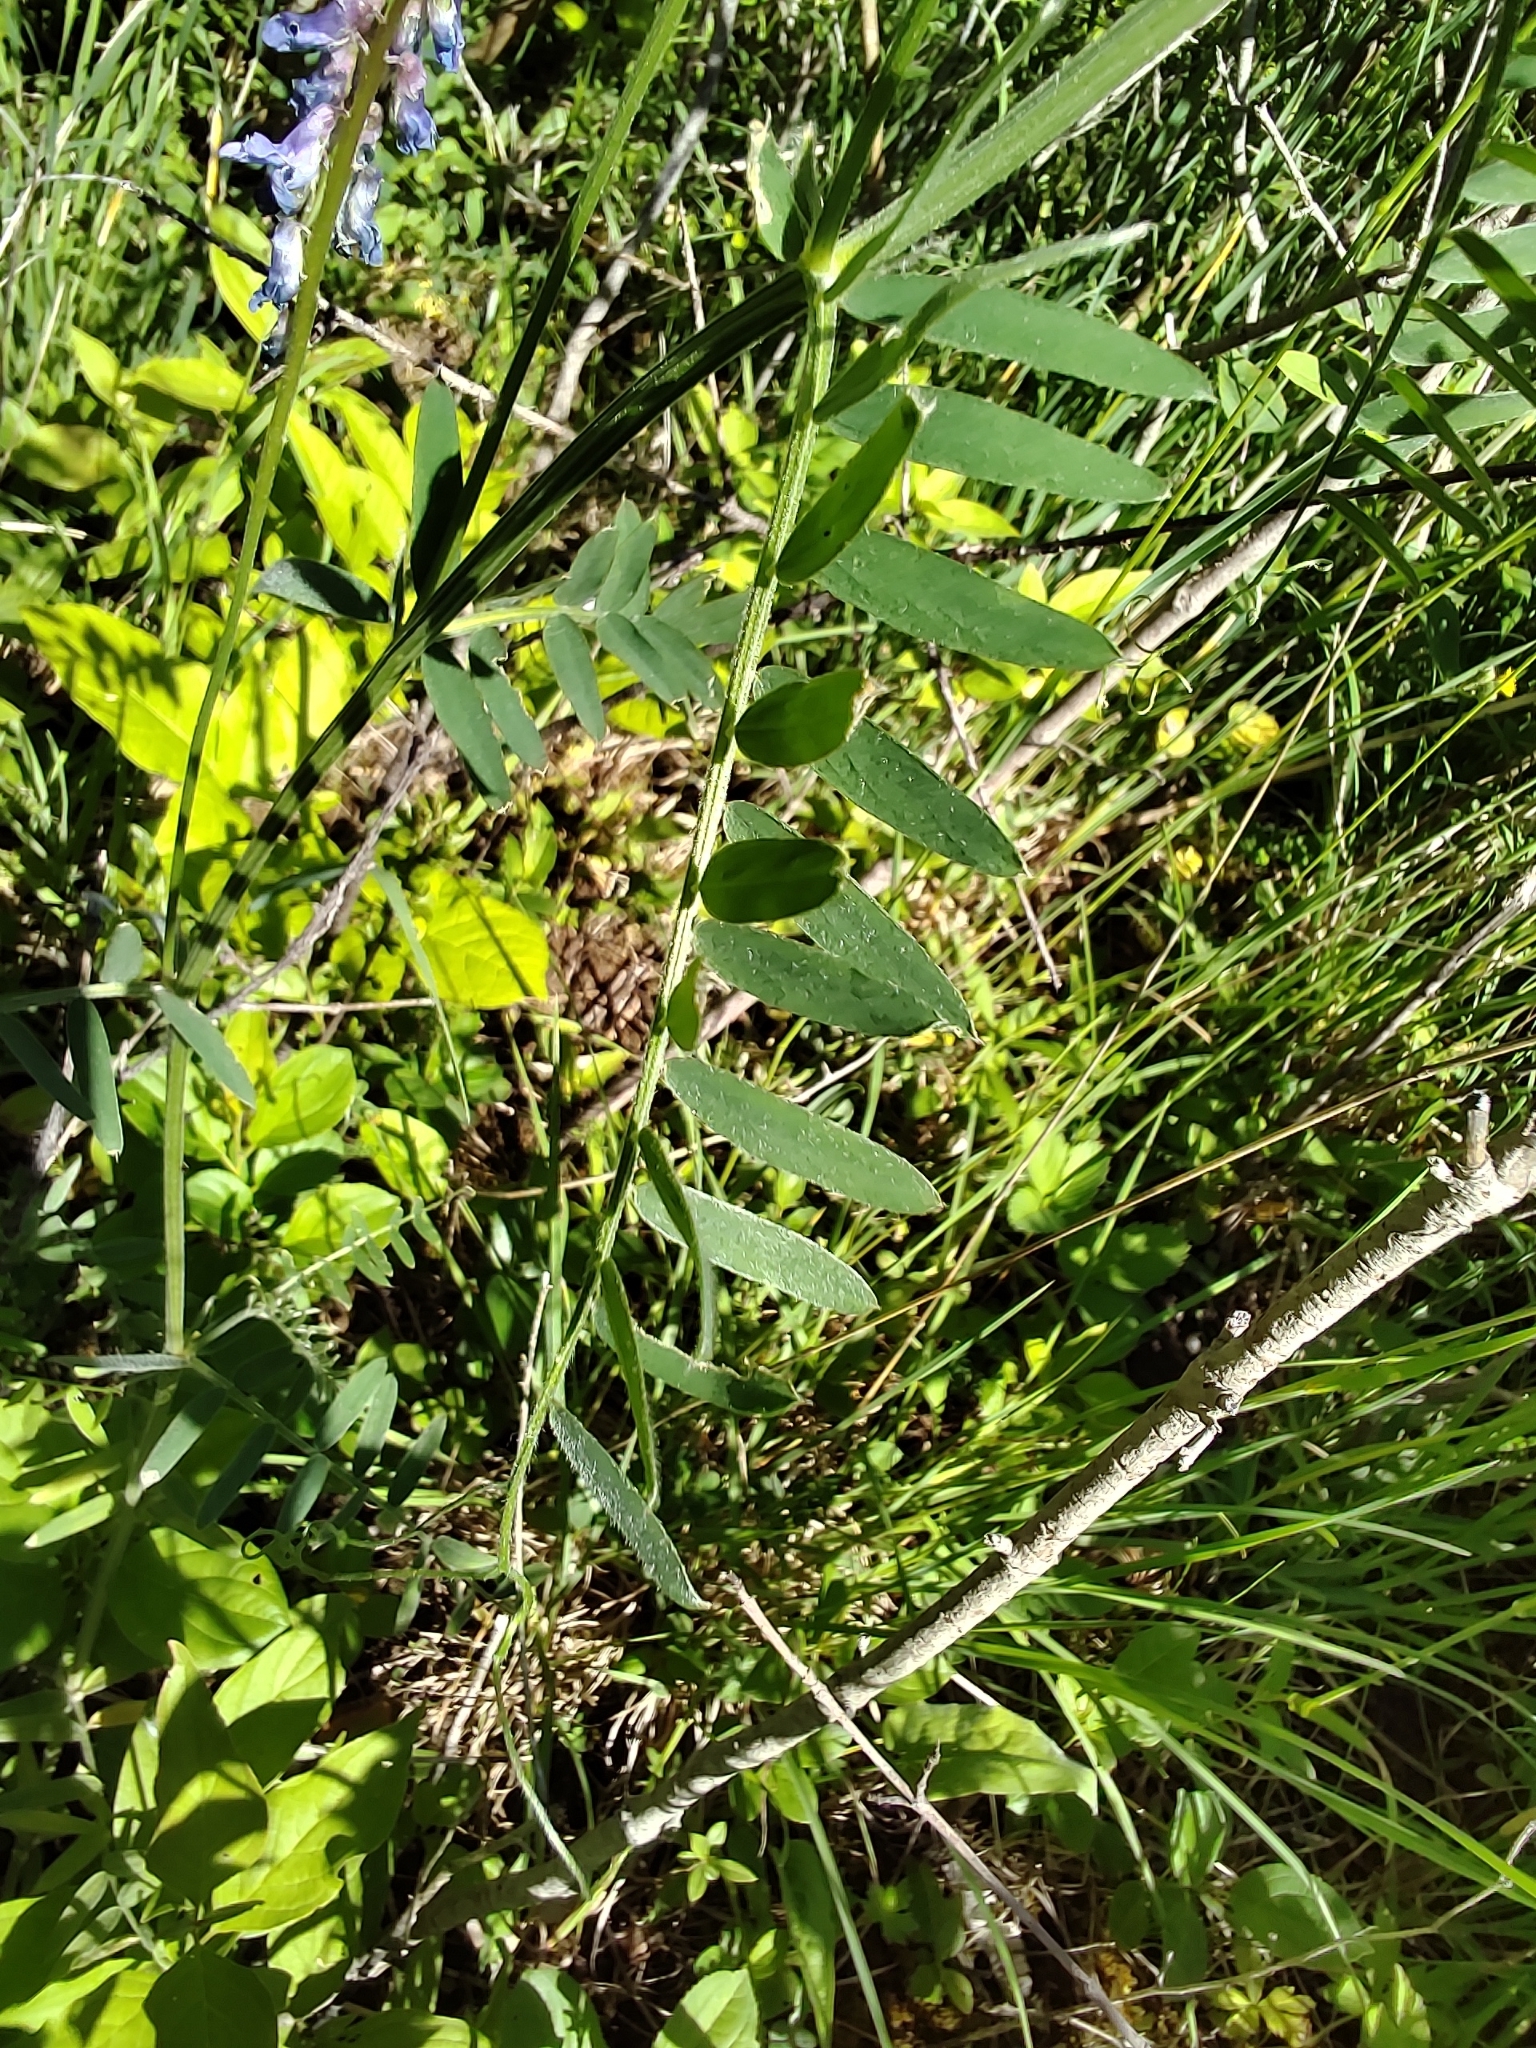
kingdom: Plantae
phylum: Tracheophyta
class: Magnoliopsida
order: Fabales
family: Fabaceae
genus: Vicia
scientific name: Vicia cracca
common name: Bird vetch
